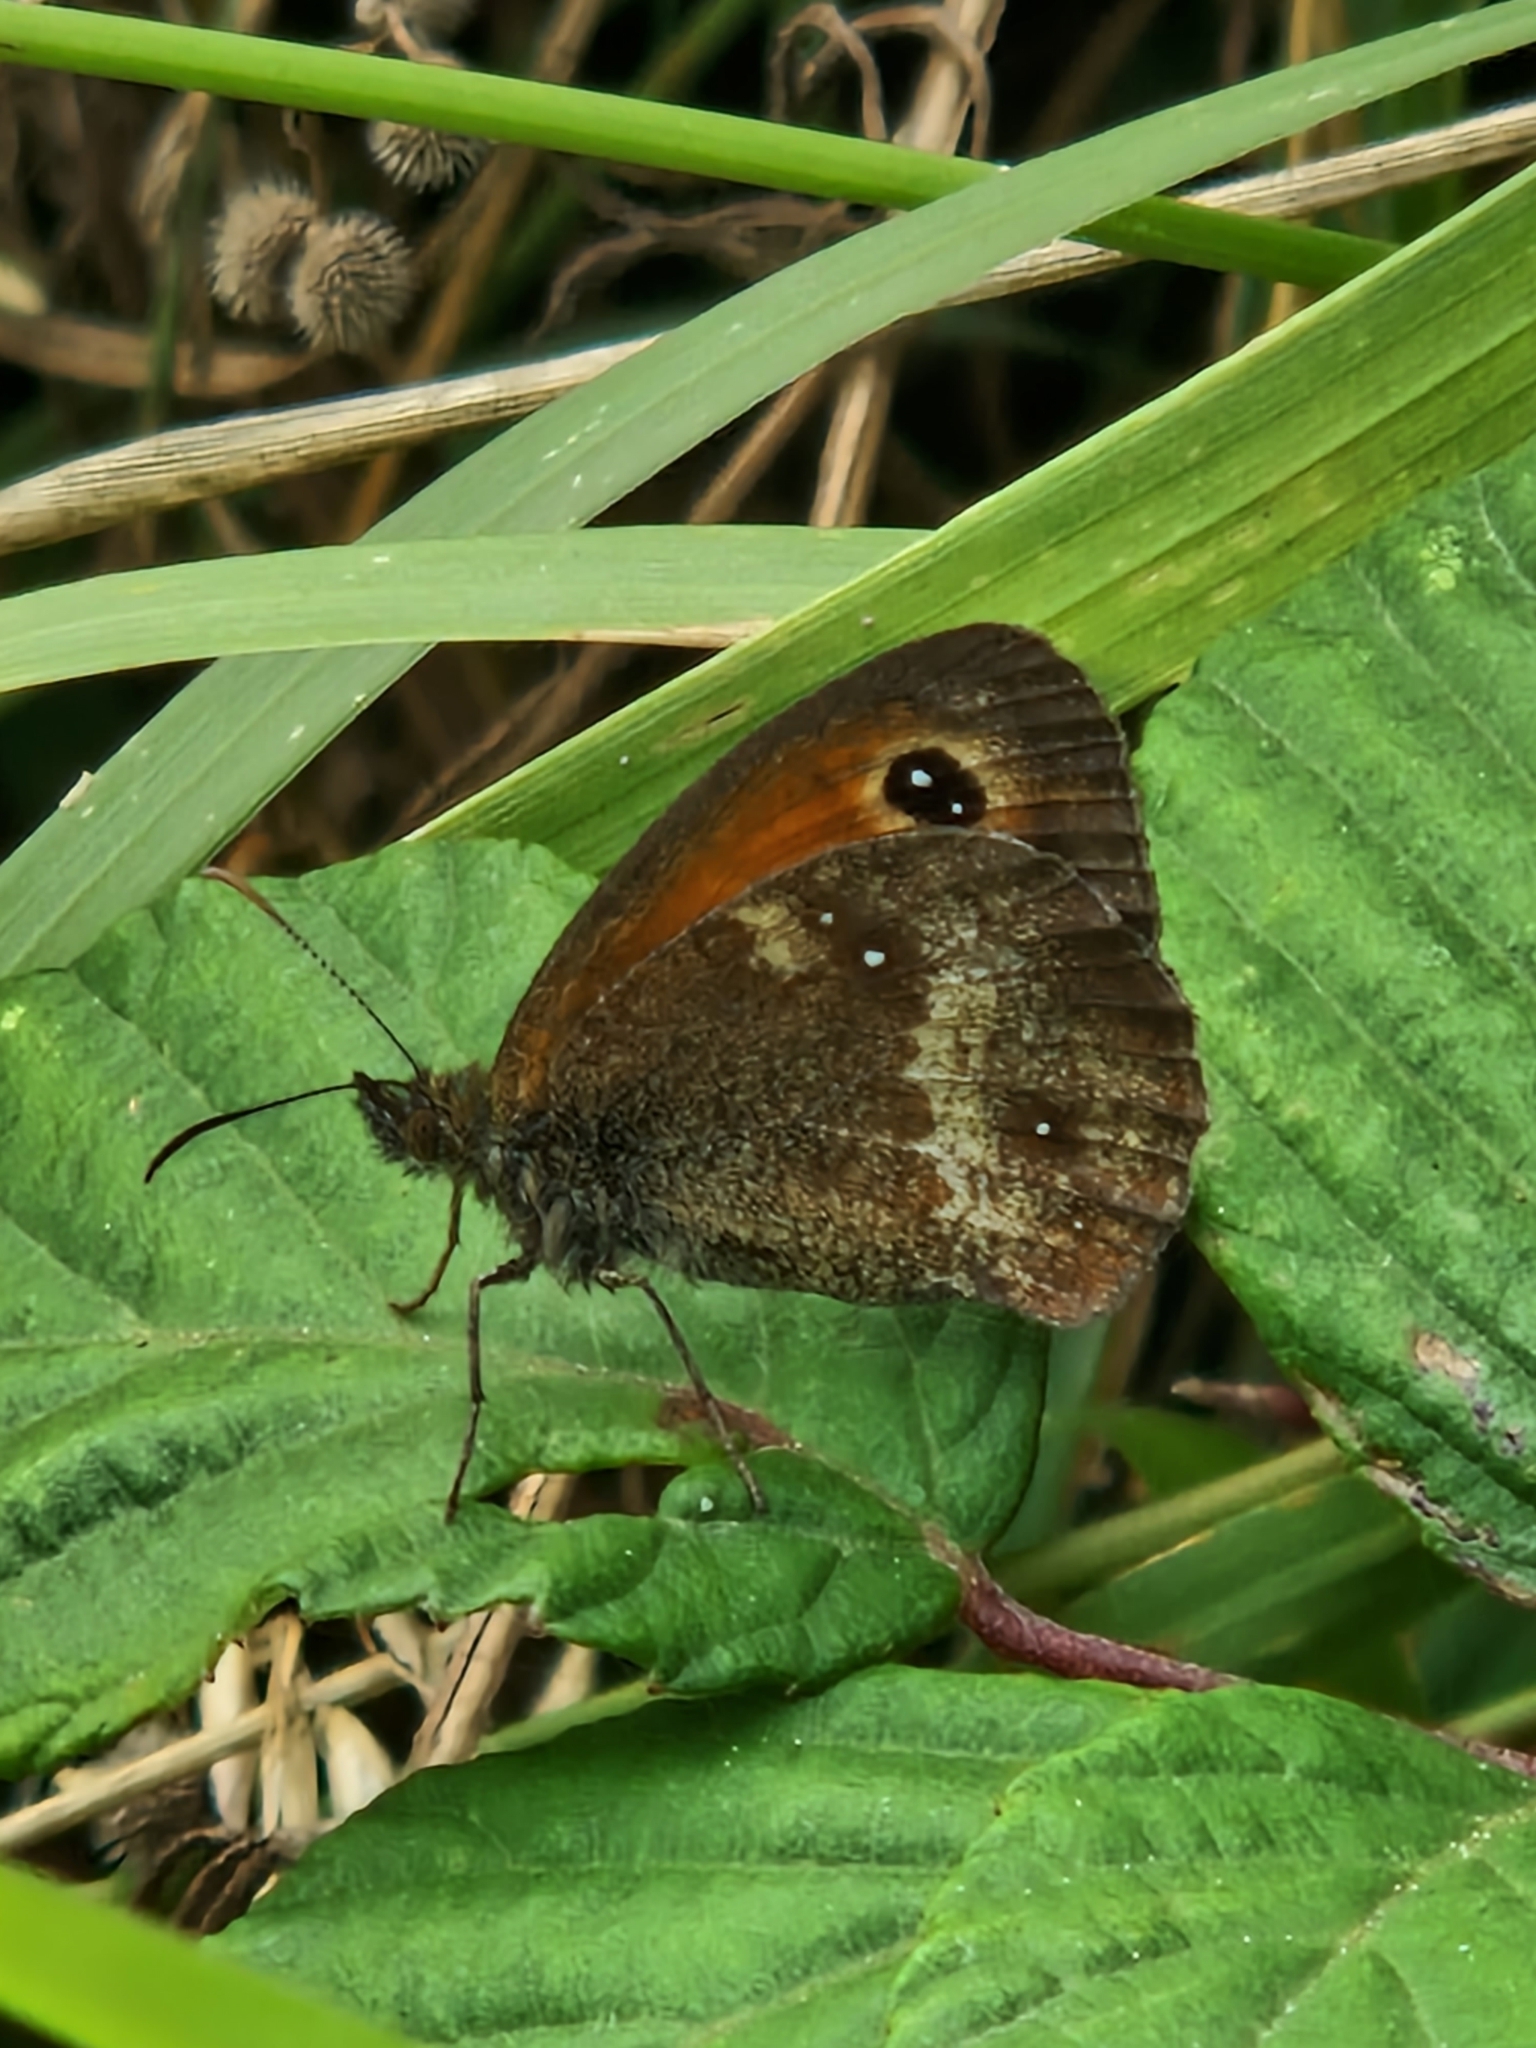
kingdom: Animalia
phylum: Arthropoda
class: Insecta
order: Lepidoptera
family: Nymphalidae
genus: Pyronia
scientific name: Pyronia tithonus
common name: Gatekeeper
